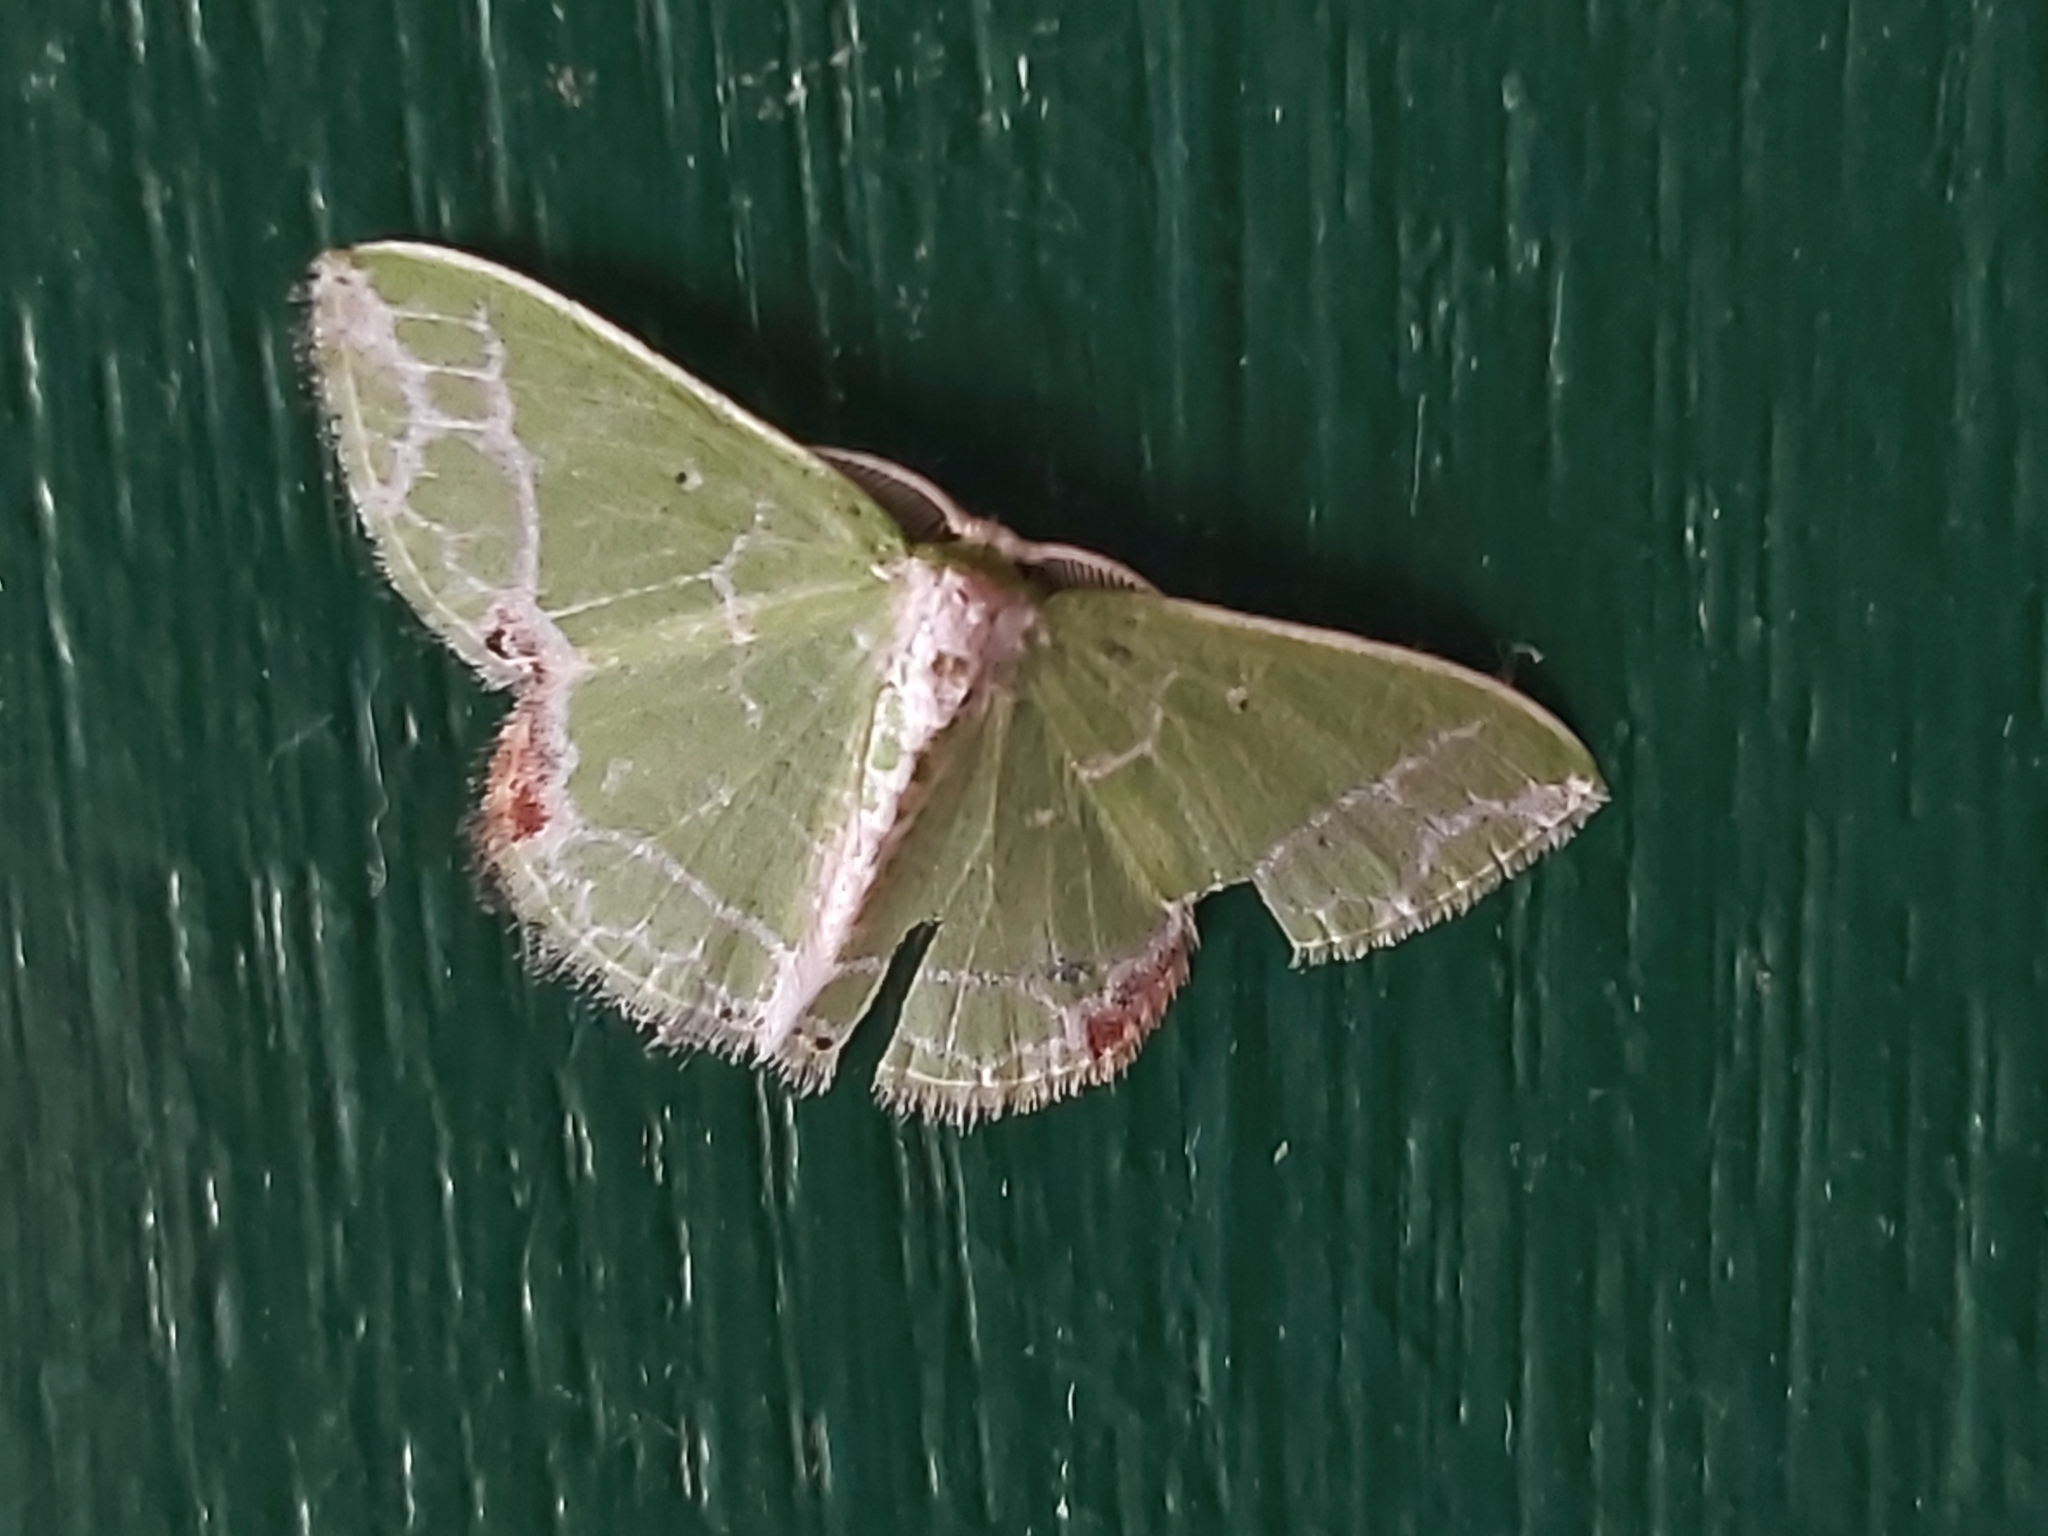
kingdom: Animalia
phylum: Arthropoda
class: Insecta
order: Lepidoptera
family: Geometridae
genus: Protuliocnemis
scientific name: Protuliocnemis biplagiata
